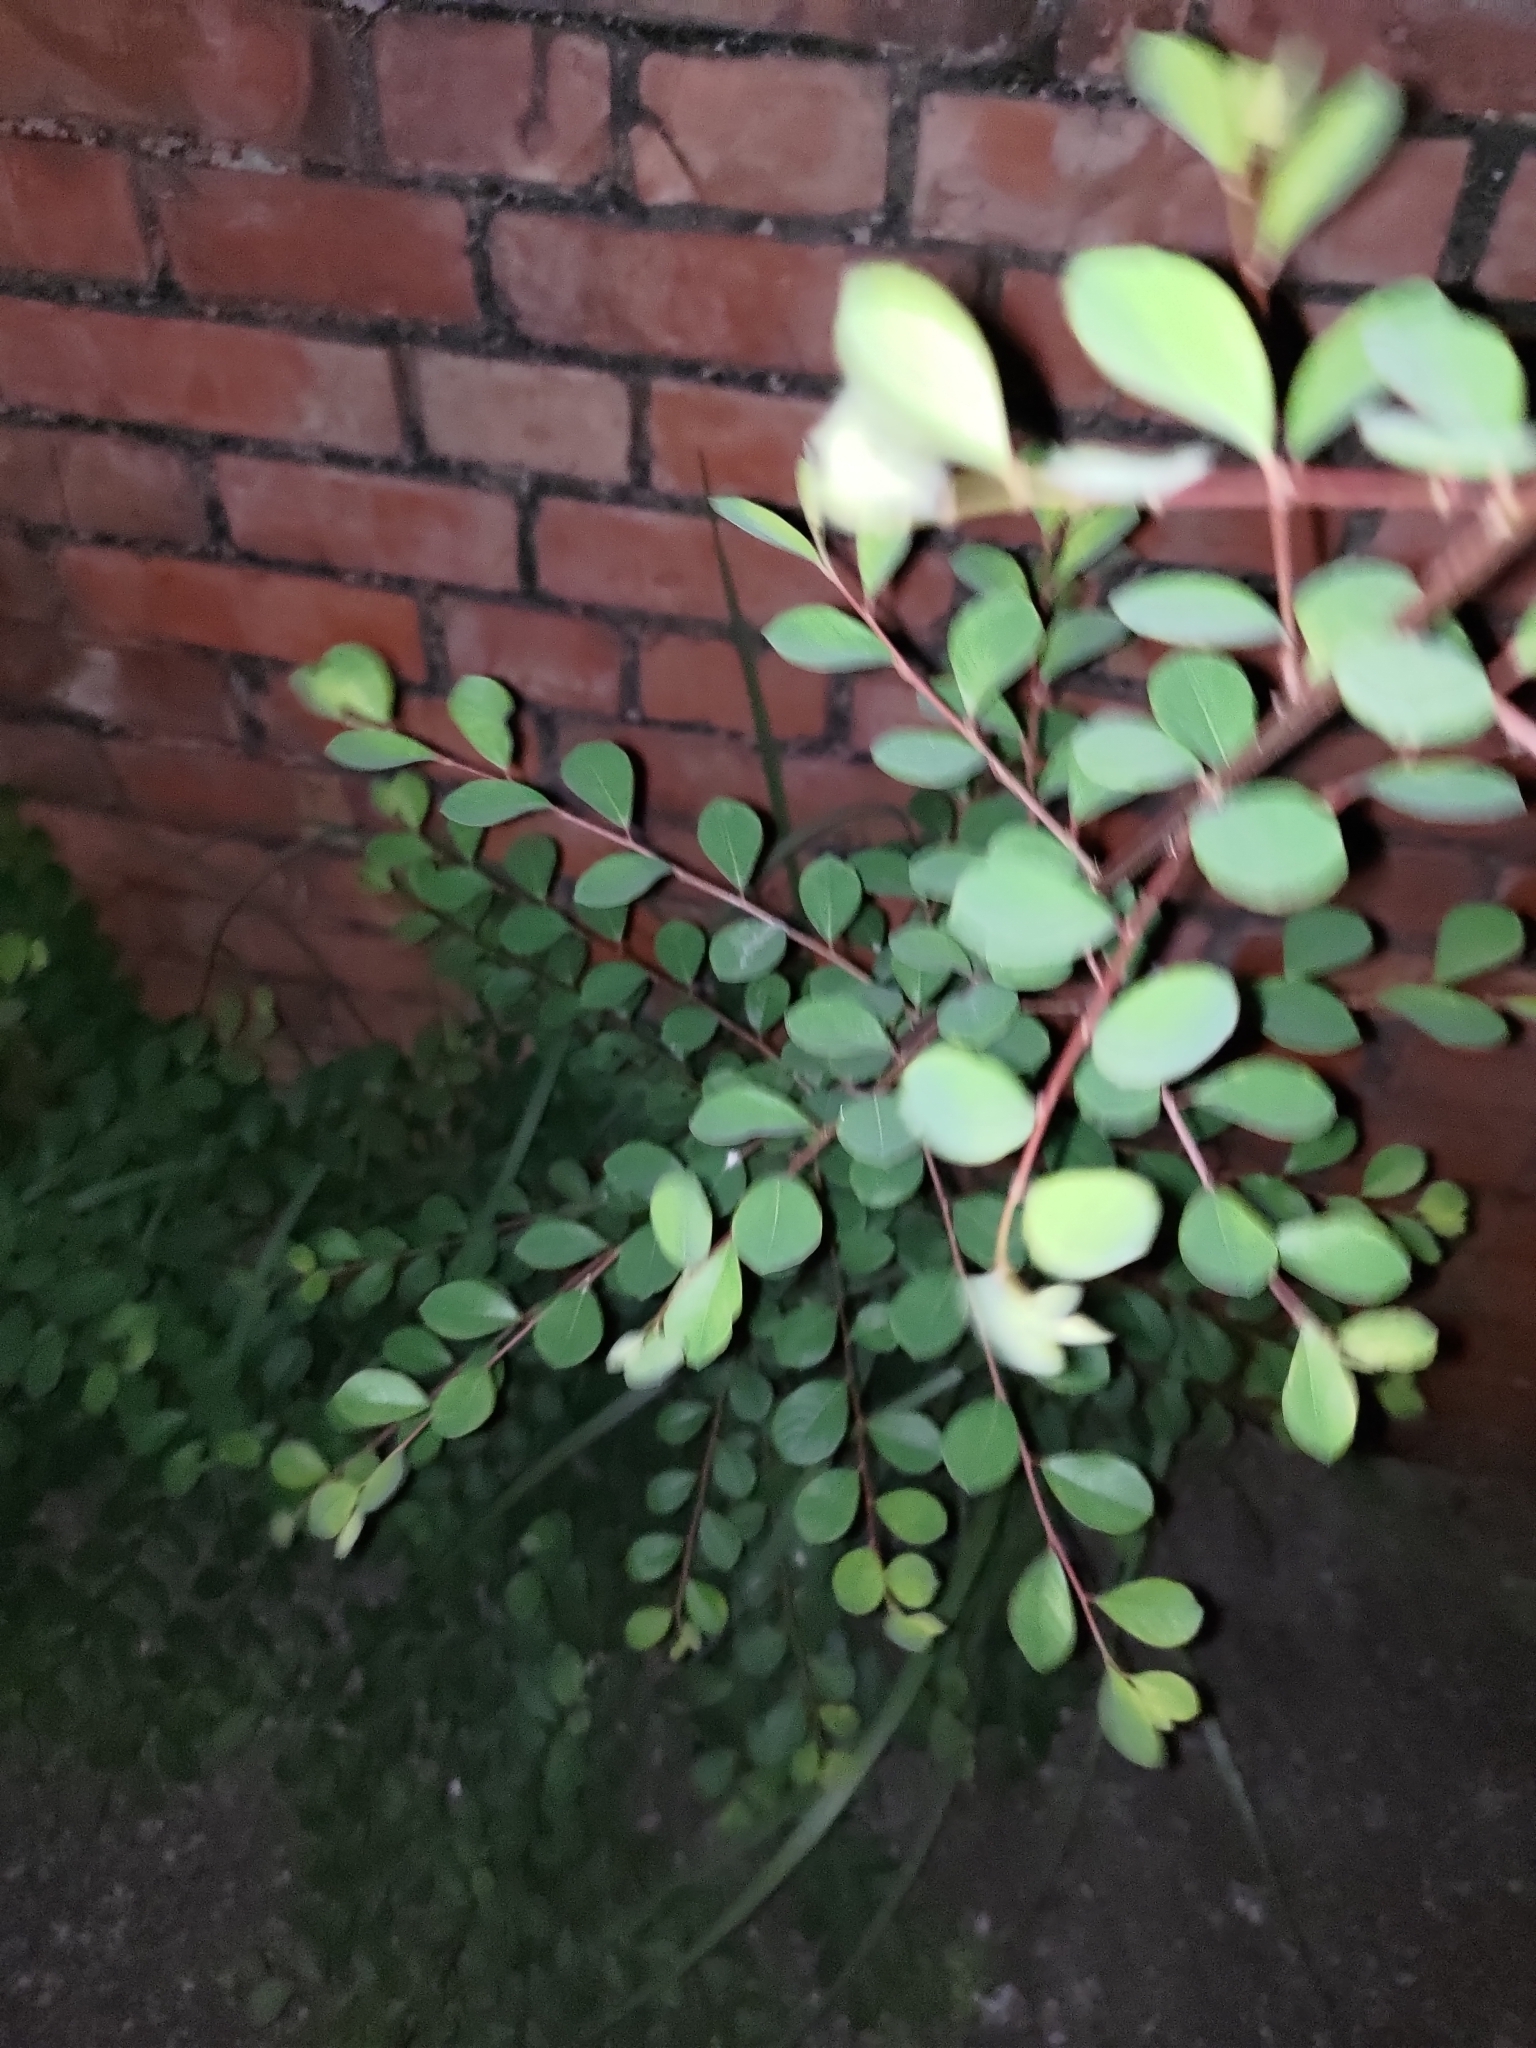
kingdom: Plantae
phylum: Tracheophyta
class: Magnoliopsida
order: Malpighiales
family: Phyllanthaceae
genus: Flueggea
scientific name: Flueggea virosa
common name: Common bushweed
